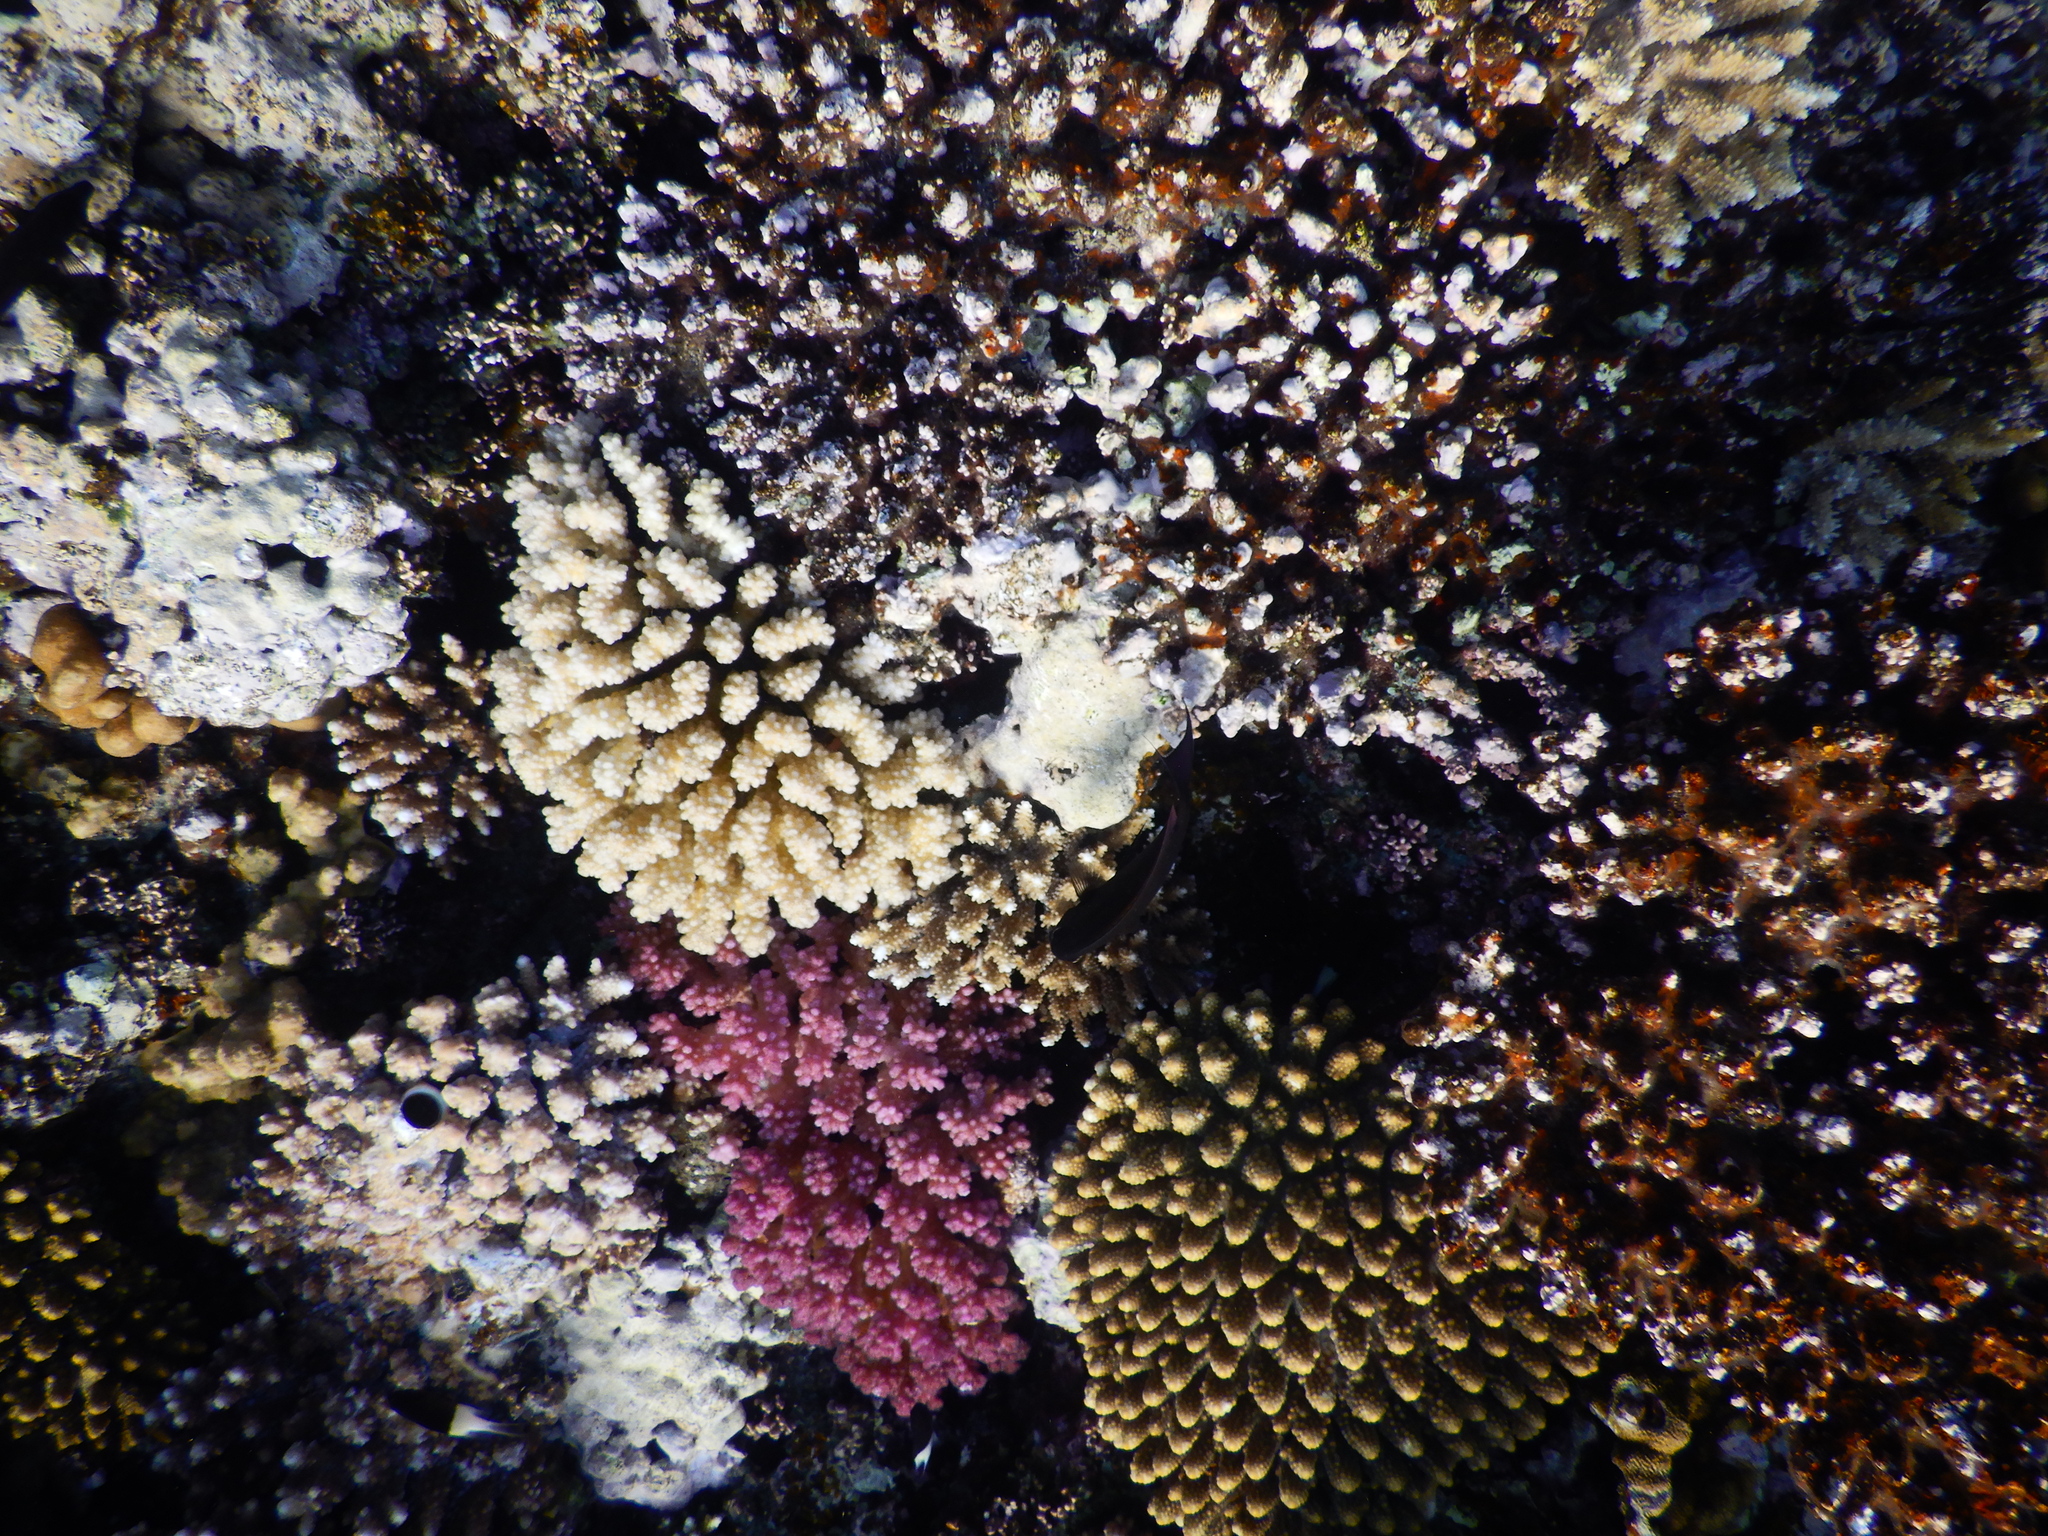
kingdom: Animalia
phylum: Cnidaria
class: Anthozoa
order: Scleractinia
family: Pocilloporidae
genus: Pocillopora
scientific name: Pocillopora verrucosa
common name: Cauliflower coral
